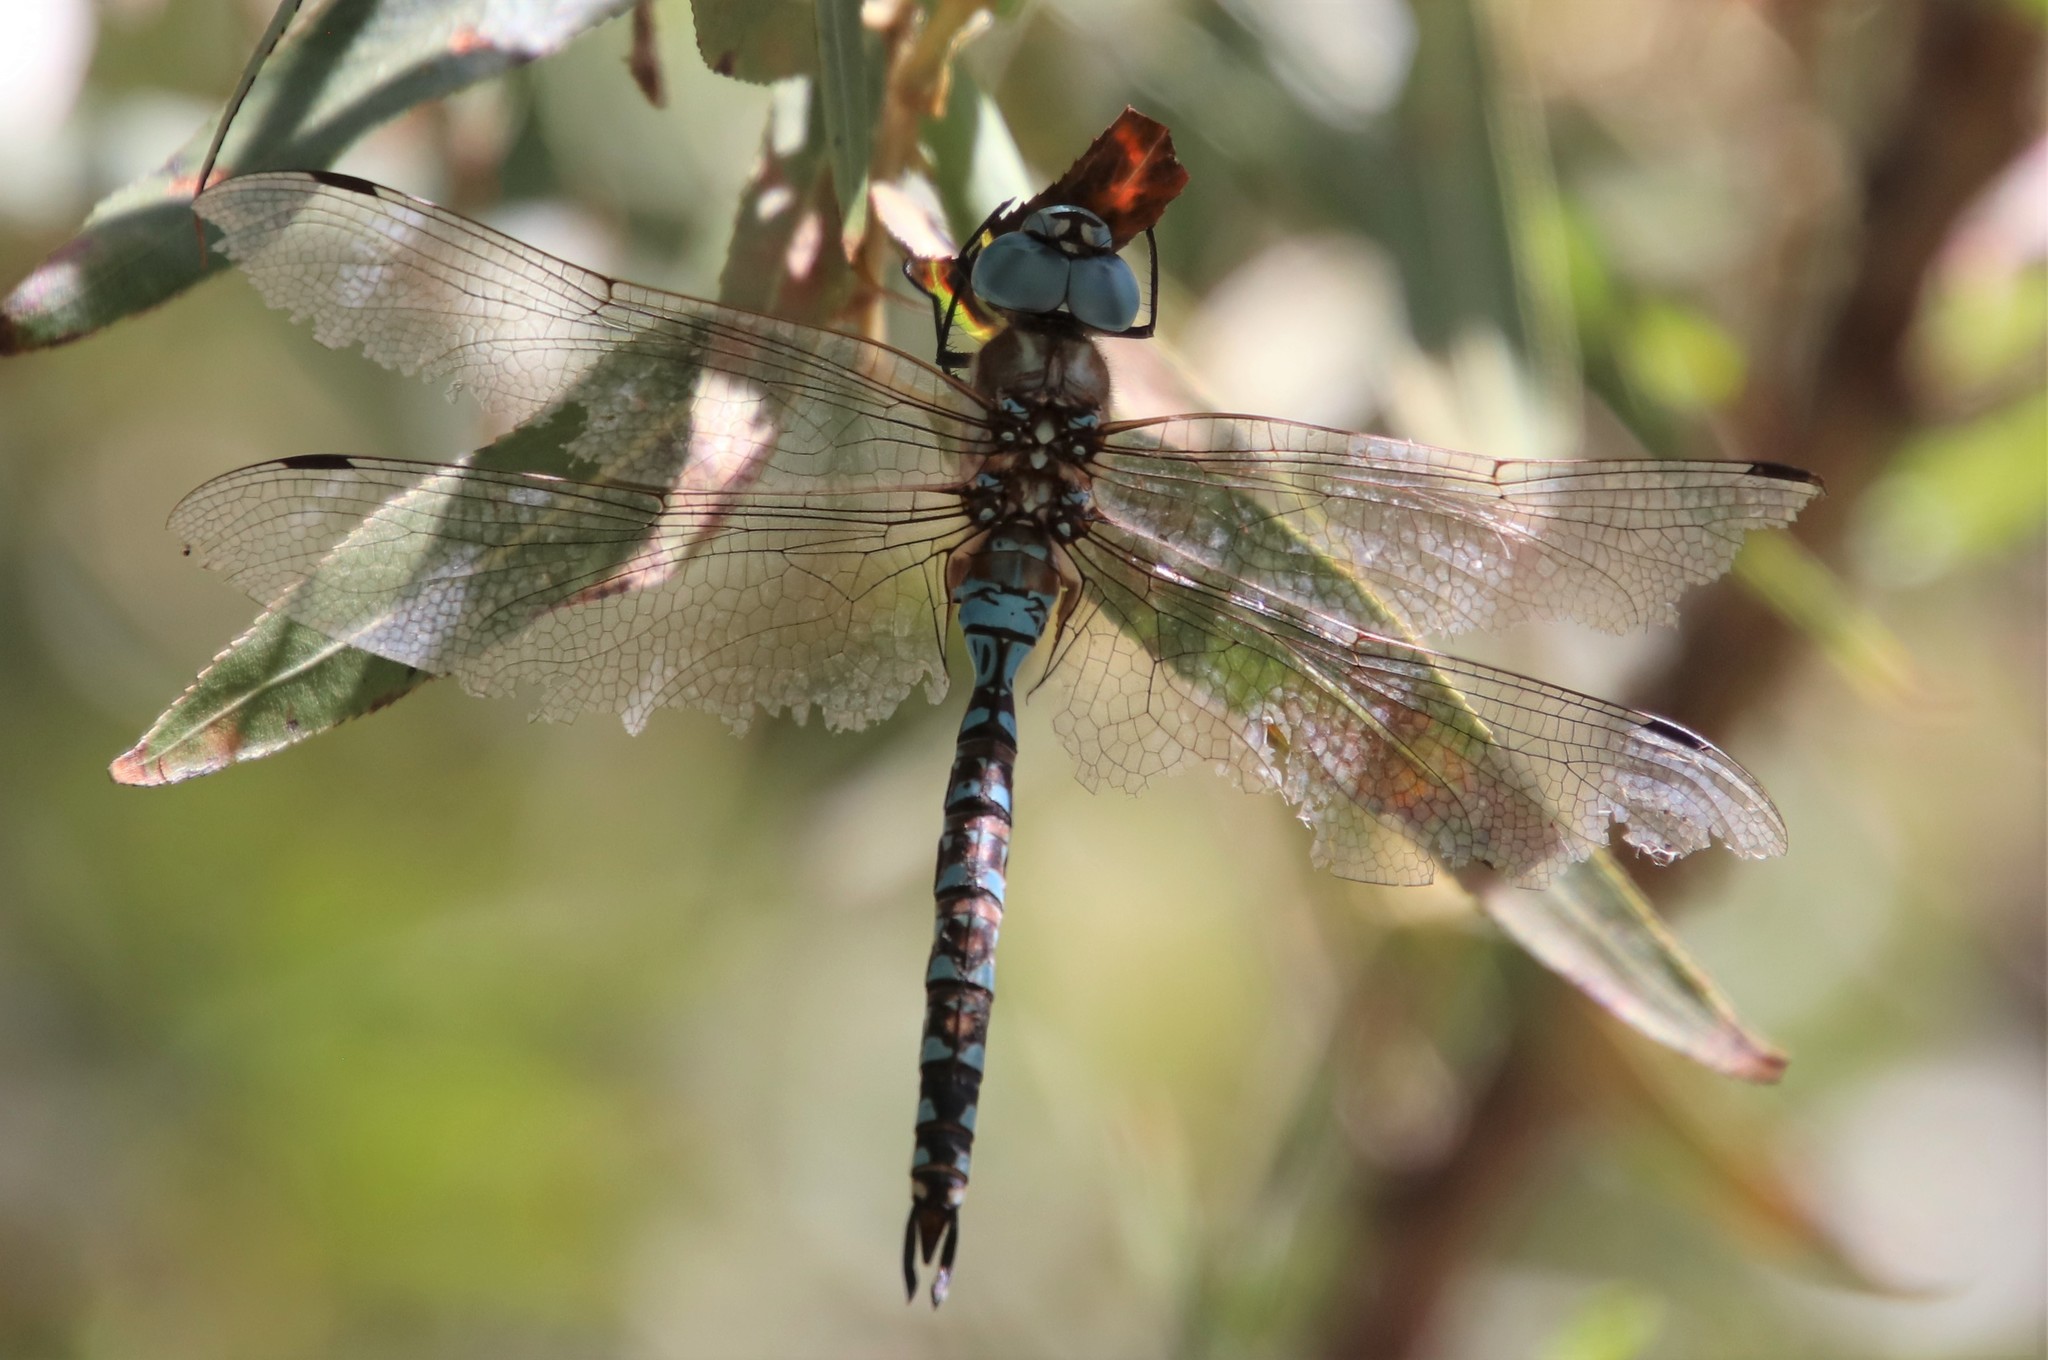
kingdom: Animalia
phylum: Arthropoda
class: Insecta
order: Odonata
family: Aeshnidae
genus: Rhionaeschna
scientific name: Rhionaeschna multicolor
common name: Blue-eyed darner
